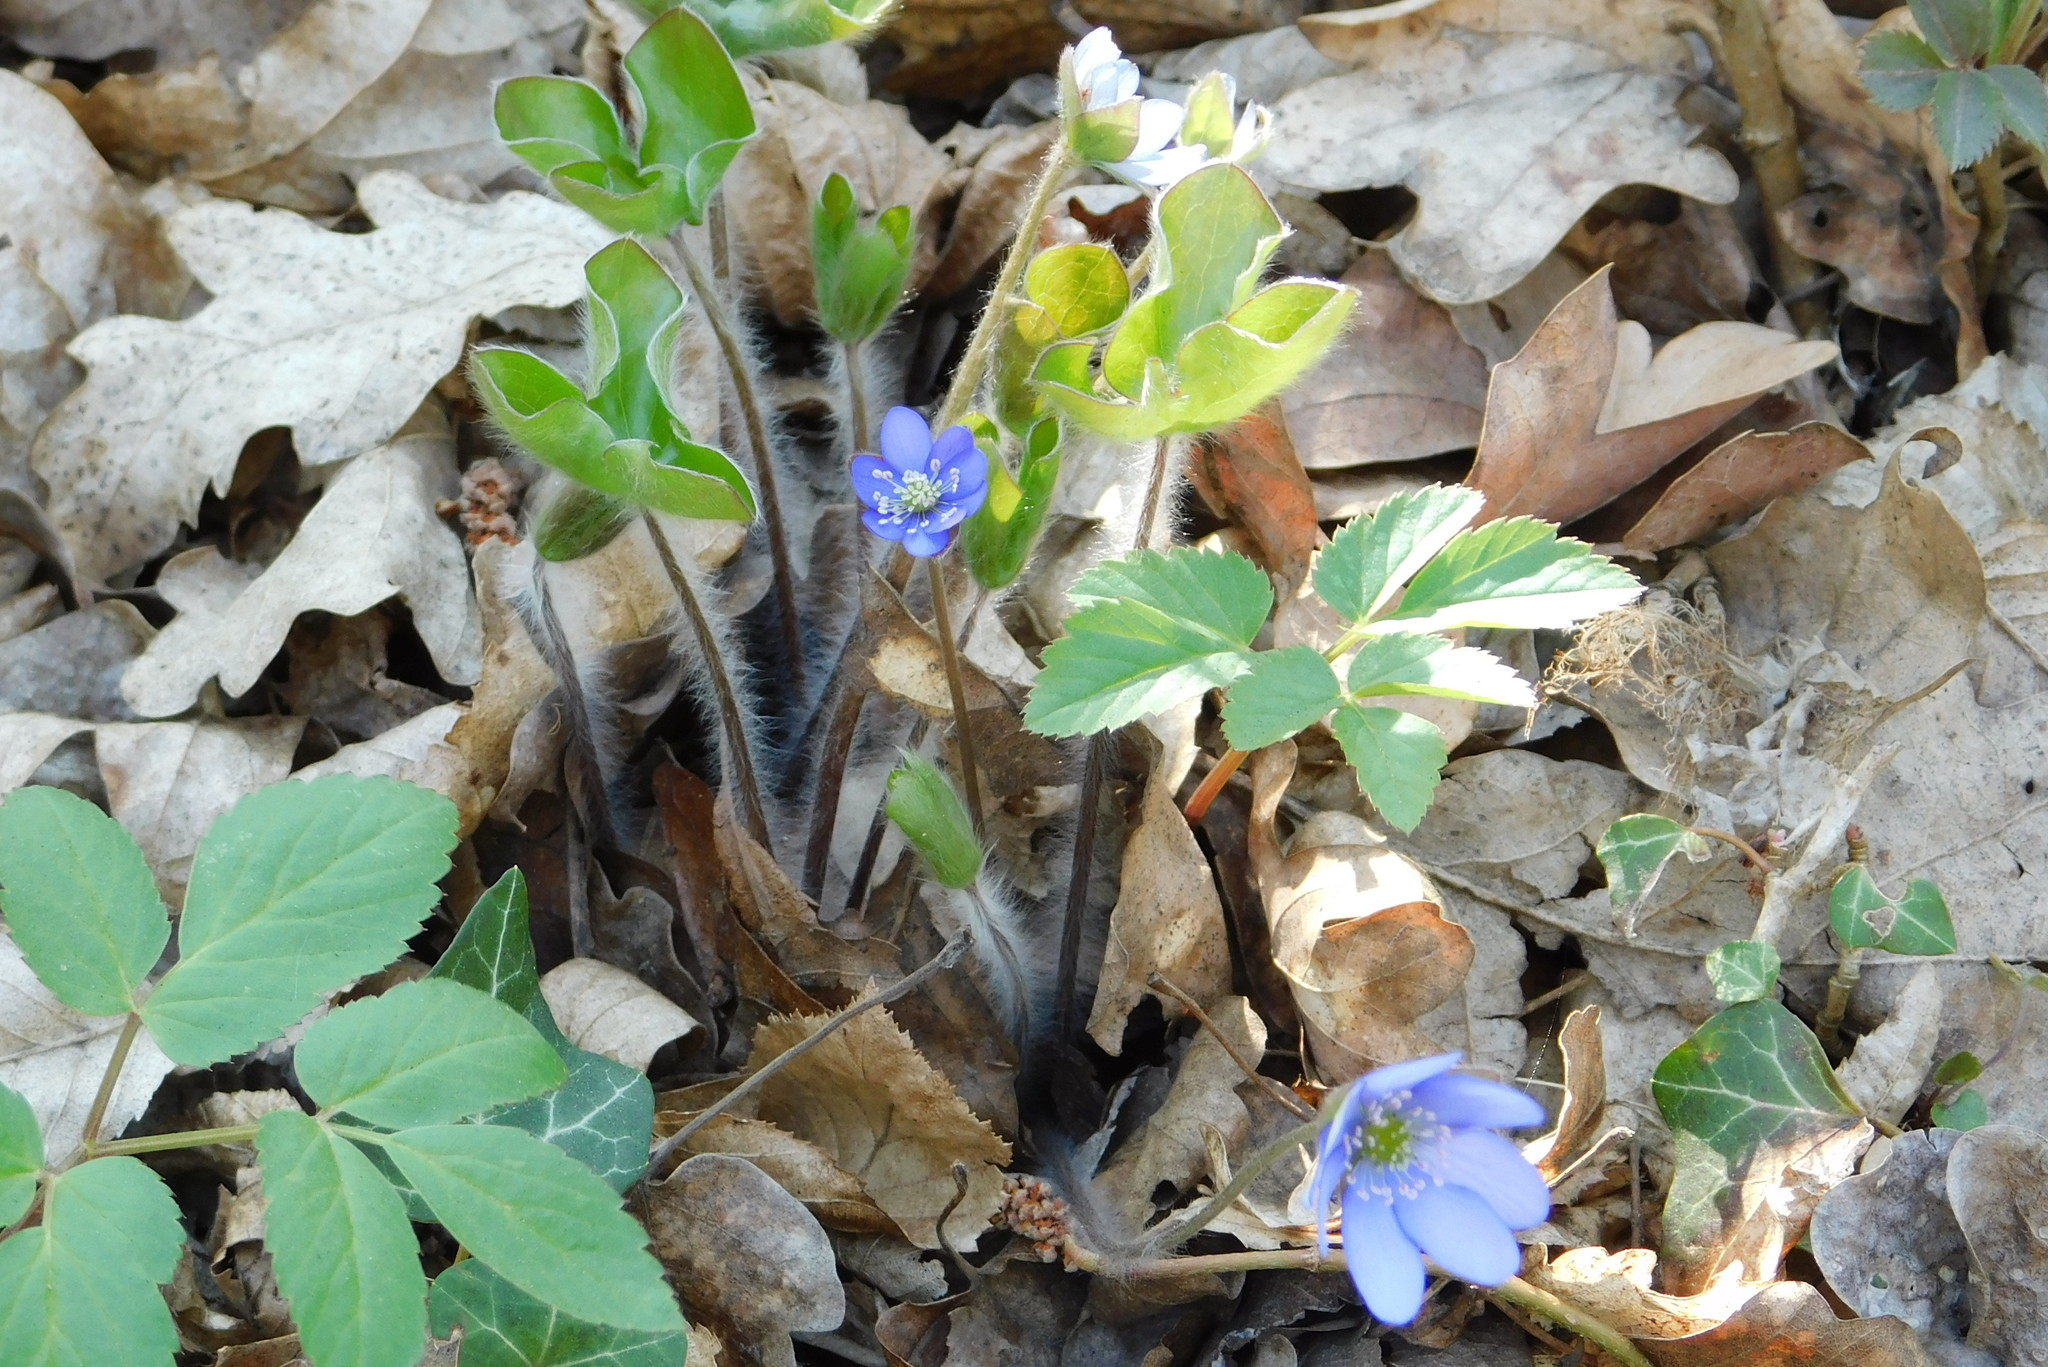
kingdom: Plantae
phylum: Tracheophyta
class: Magnoliopsida
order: Ranunculales
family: Ranunculaceae
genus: Hepatica
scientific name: Hepatica nobilis
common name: Liverleaf
